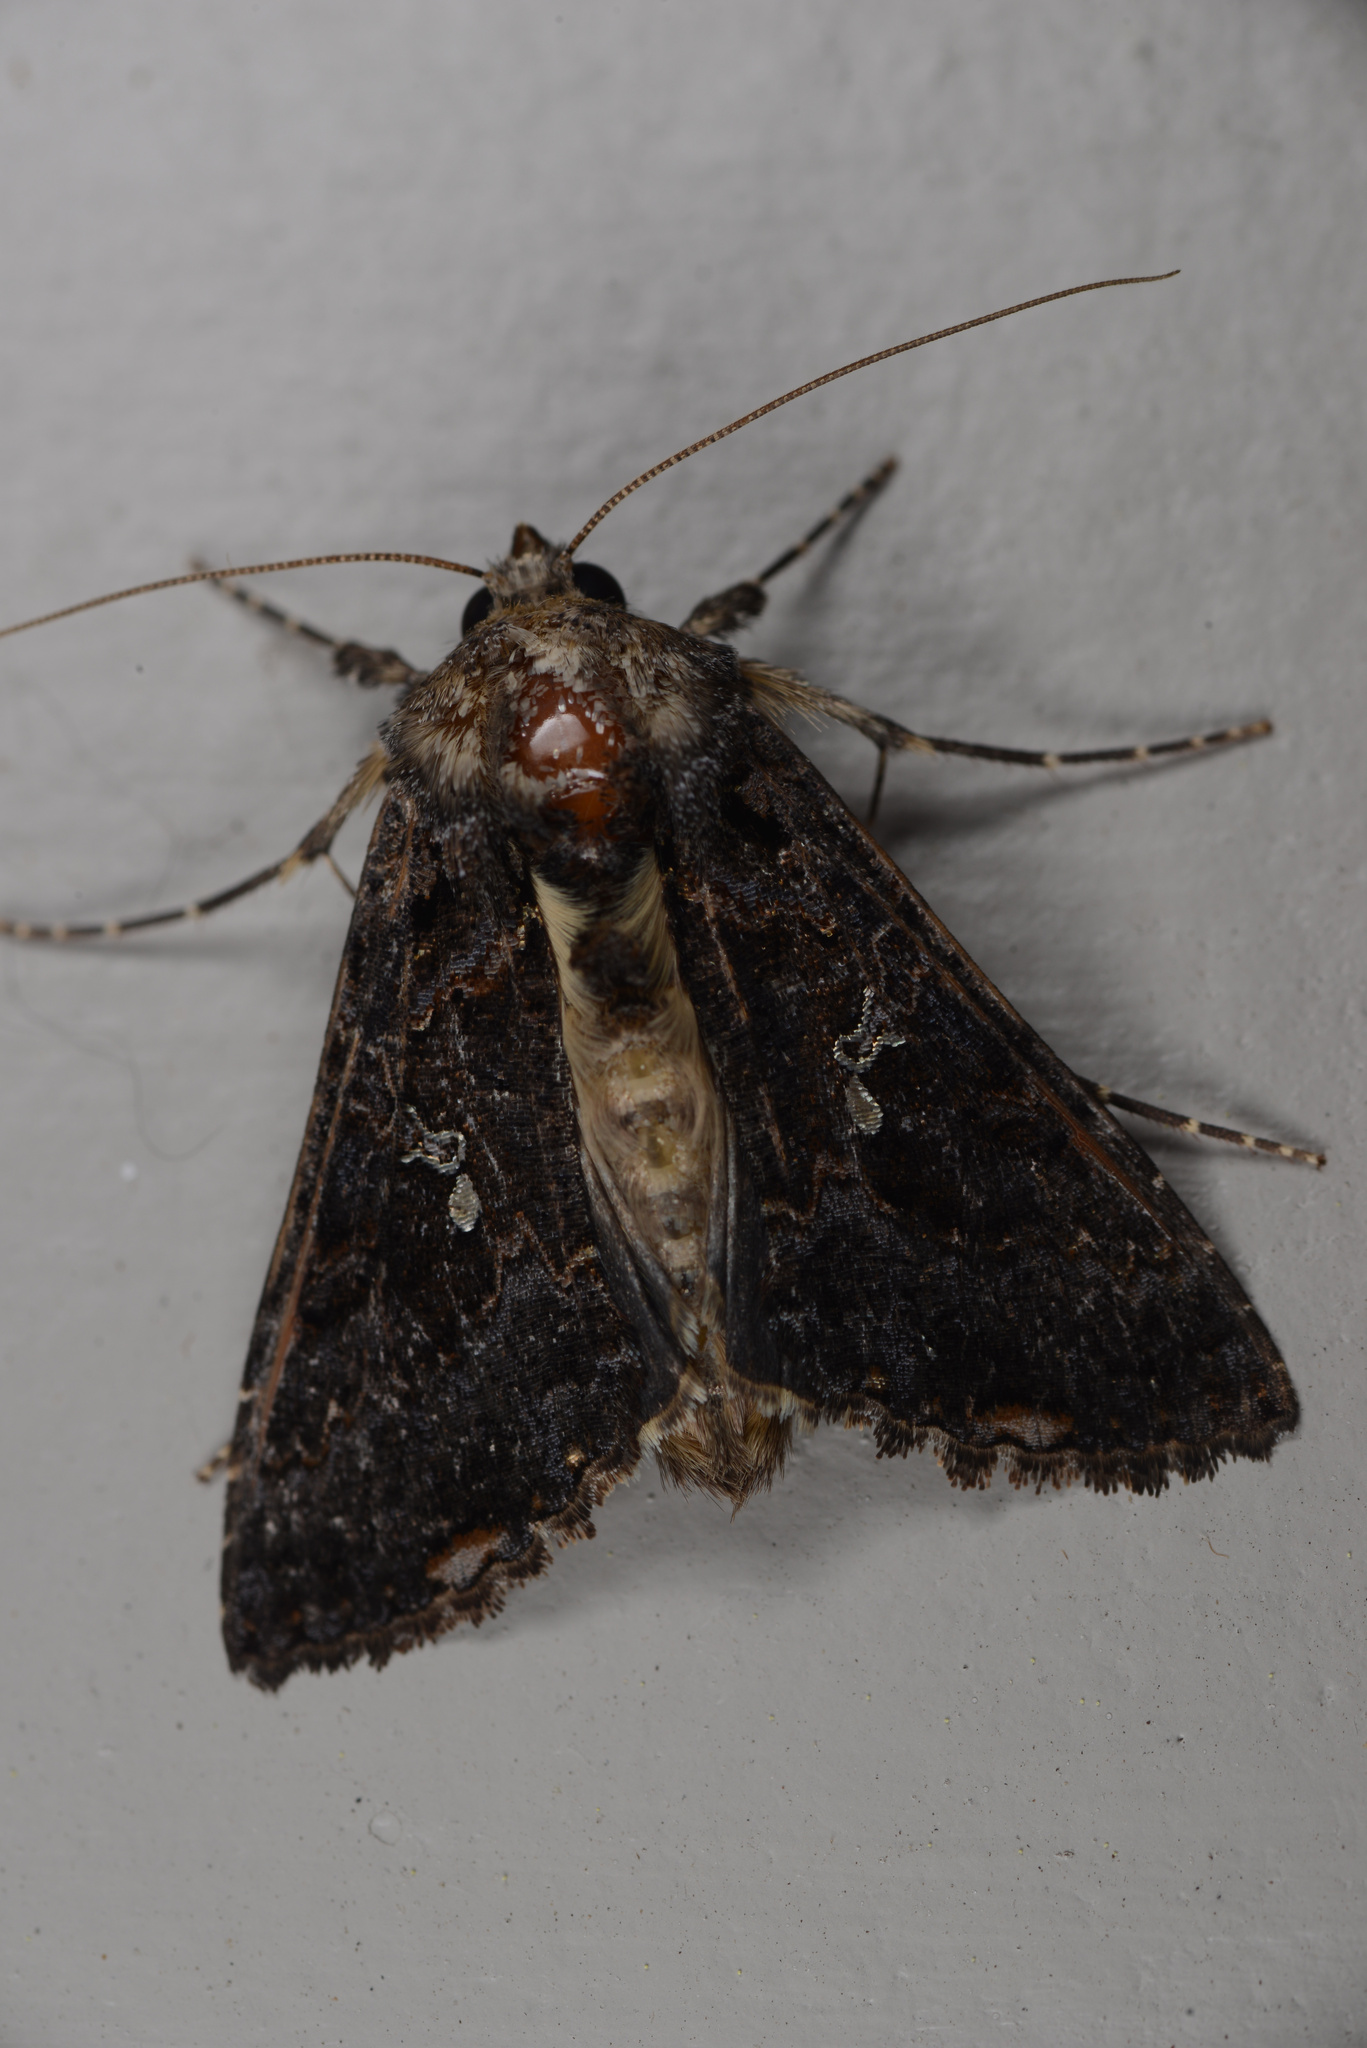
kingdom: Animalia
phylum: Arthropoda
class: Insecta
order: Lepidoptera
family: Noctuidae
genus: Ctenoplusia
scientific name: Ctenoplusia limbirena
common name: Scar bank gem
